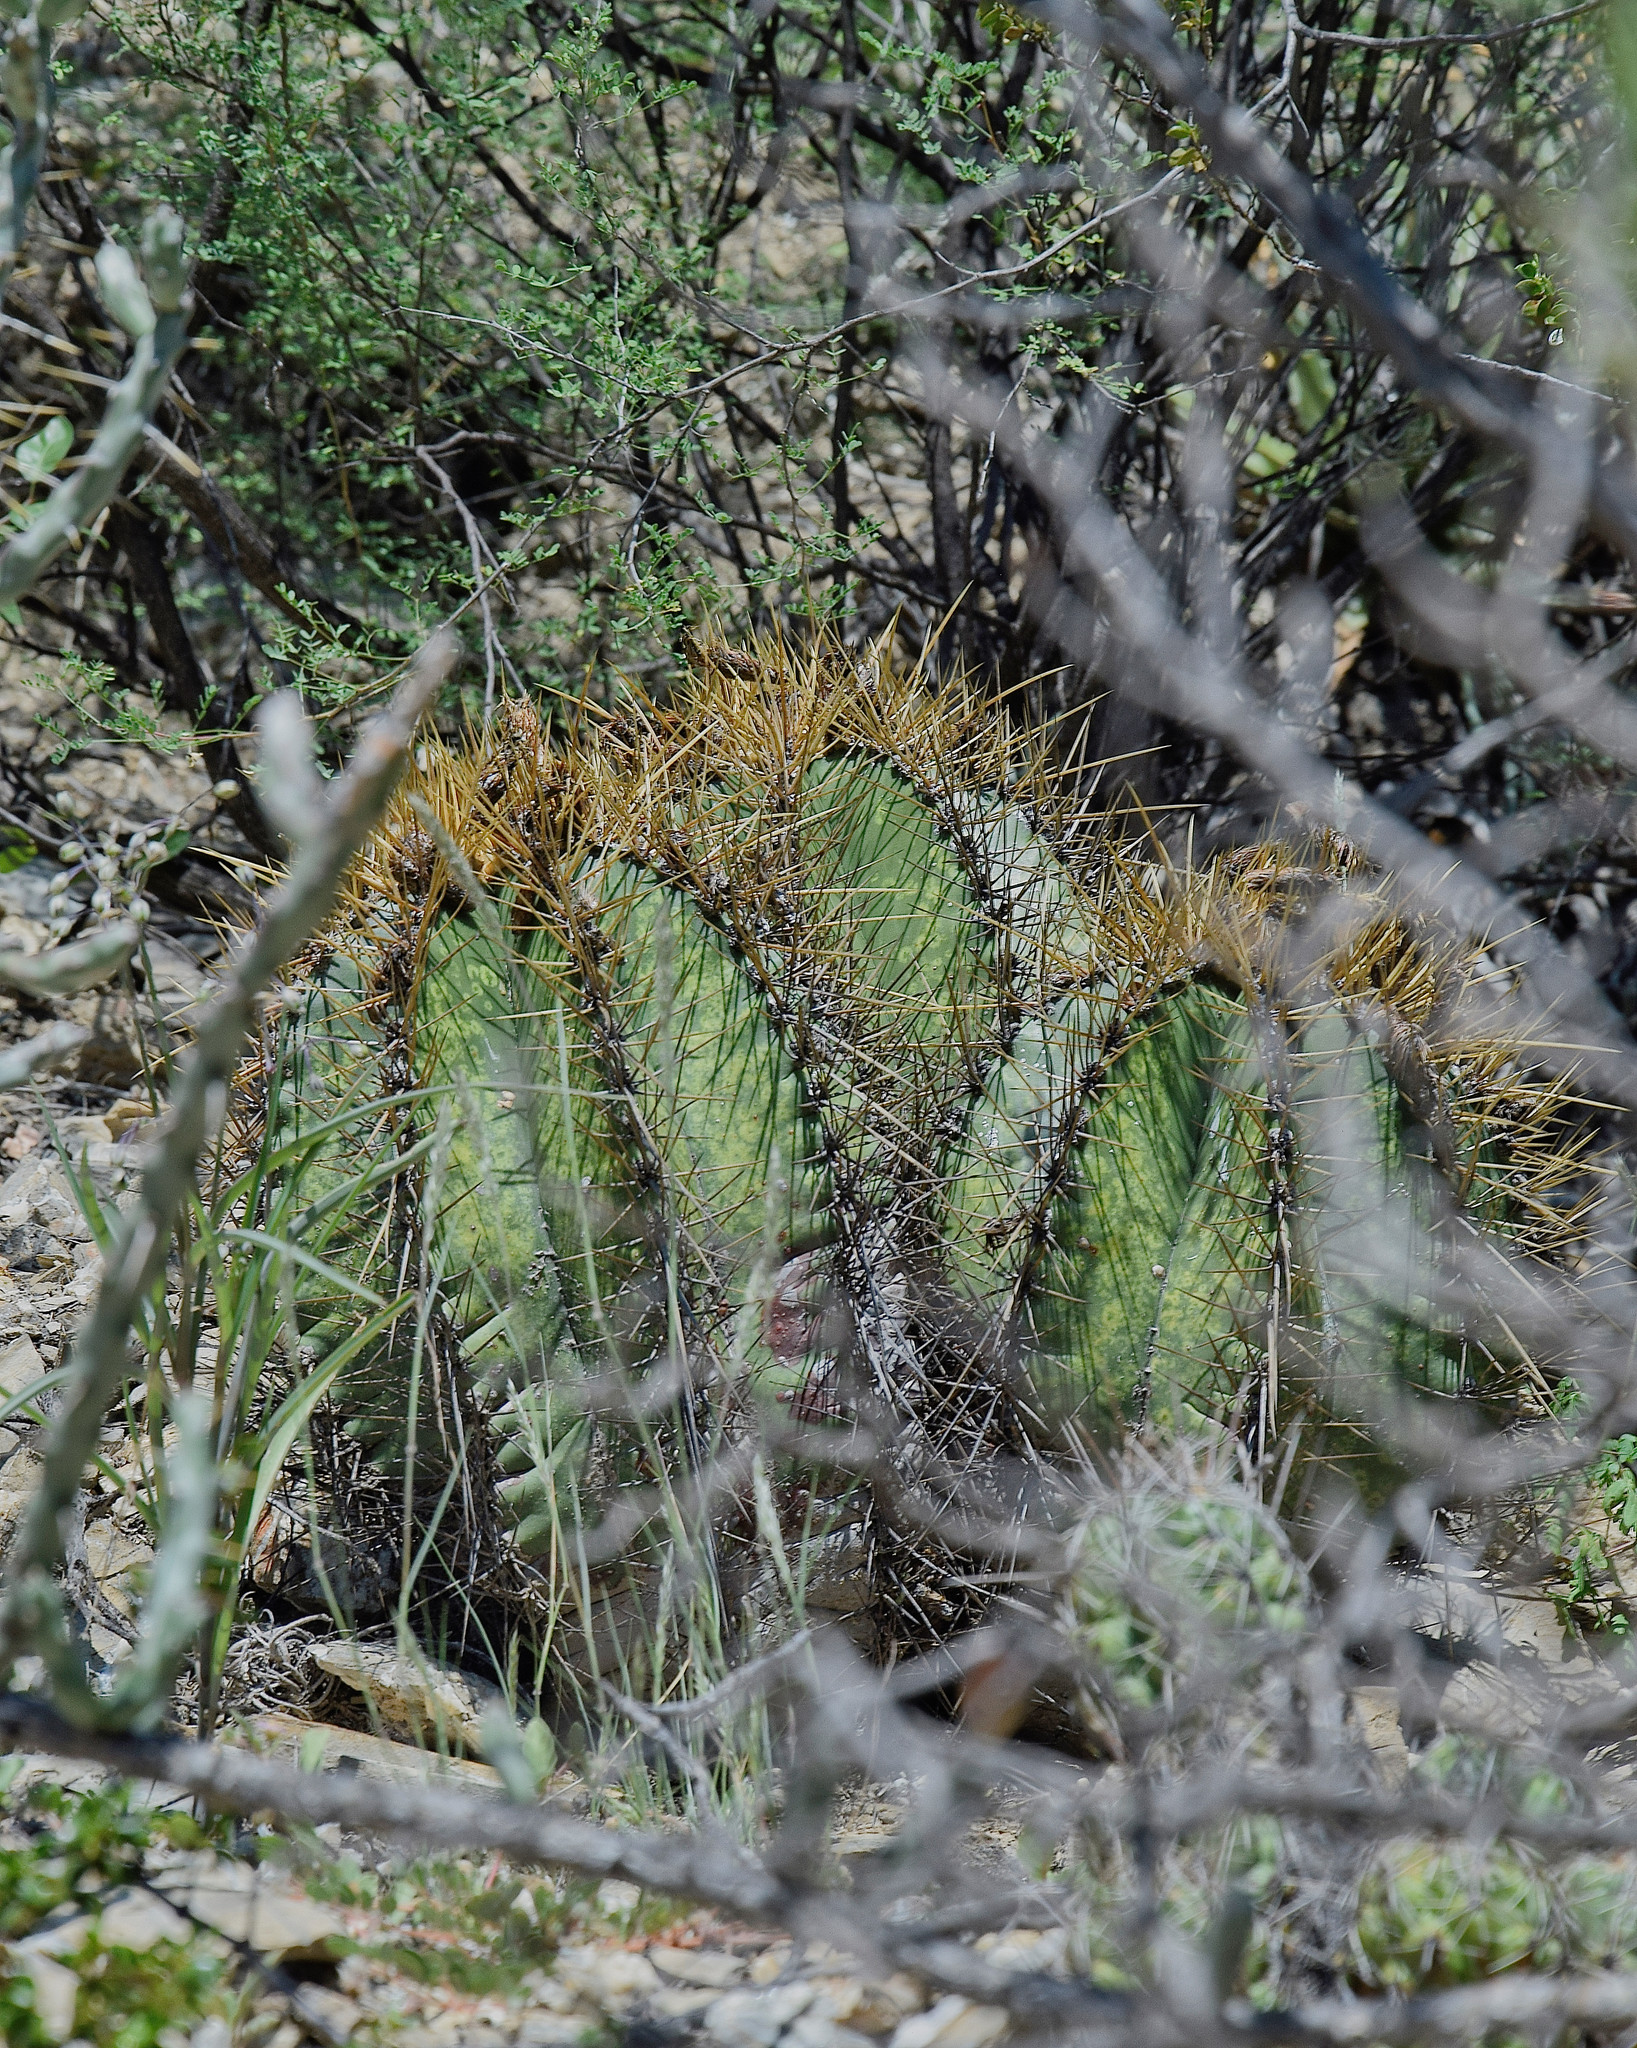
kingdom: Plantae
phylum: Tracheophyta
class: Magnoliopsida
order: Caryophyllales
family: Cactaceae
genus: Astrophytum
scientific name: Astrophytum ornatum
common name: Monk's-hood
